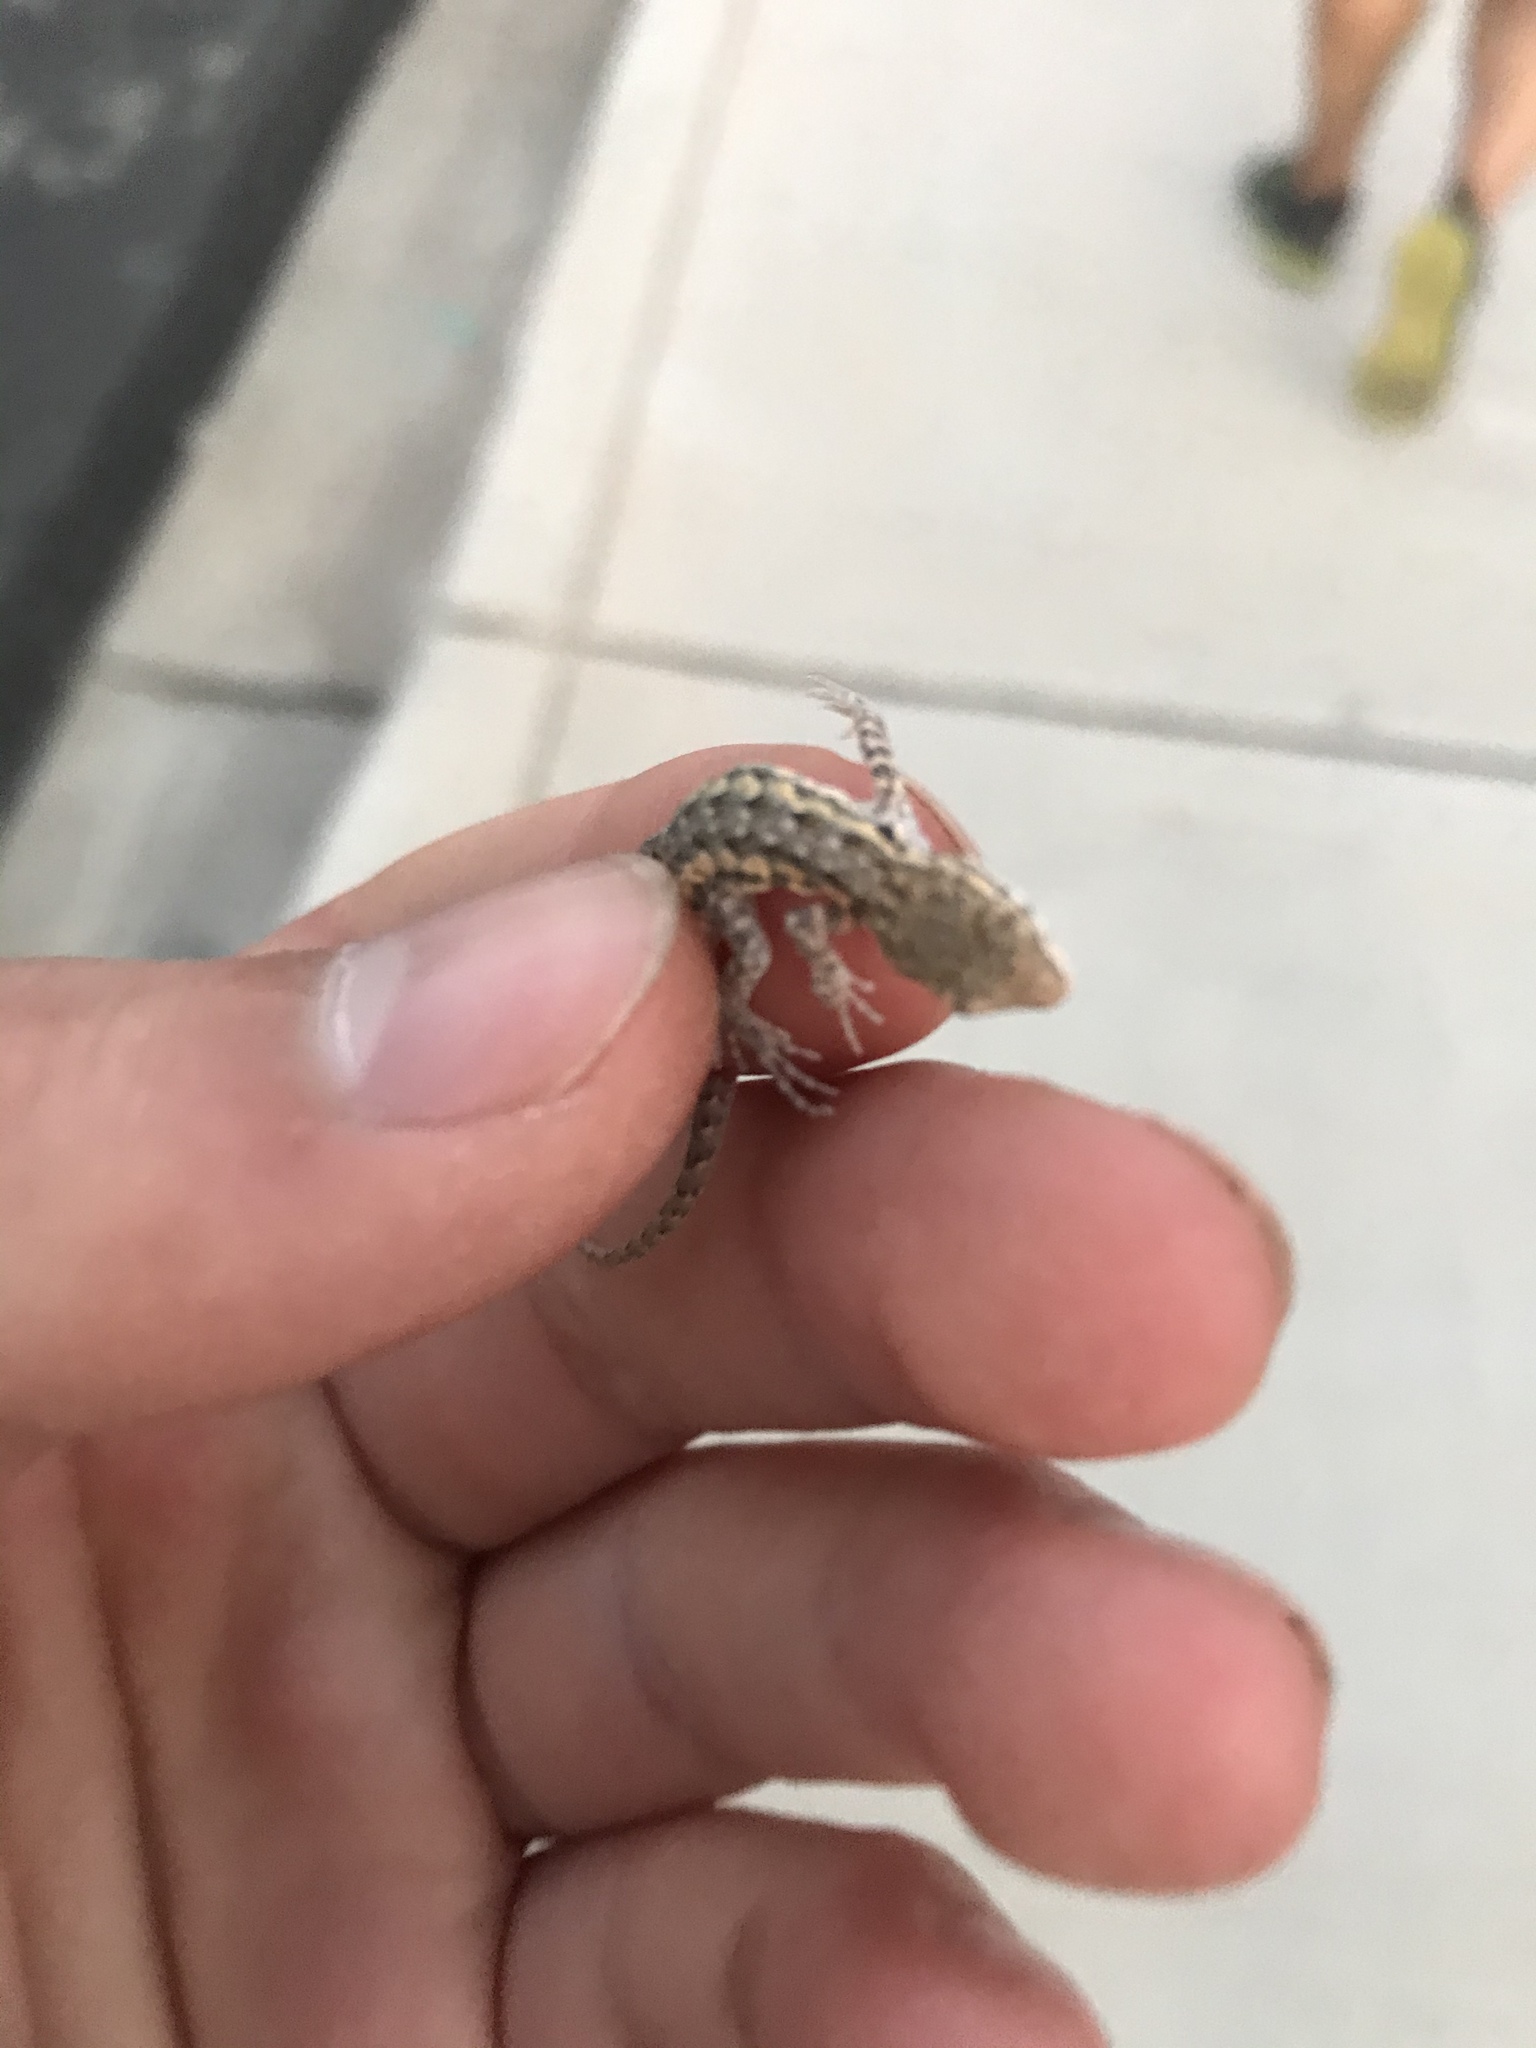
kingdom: Animalia
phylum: Chordata
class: Squamata
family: Phrynosomatidae
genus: Urosaurus
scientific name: Urosaurus ornatus
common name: Ornate tree lizard
